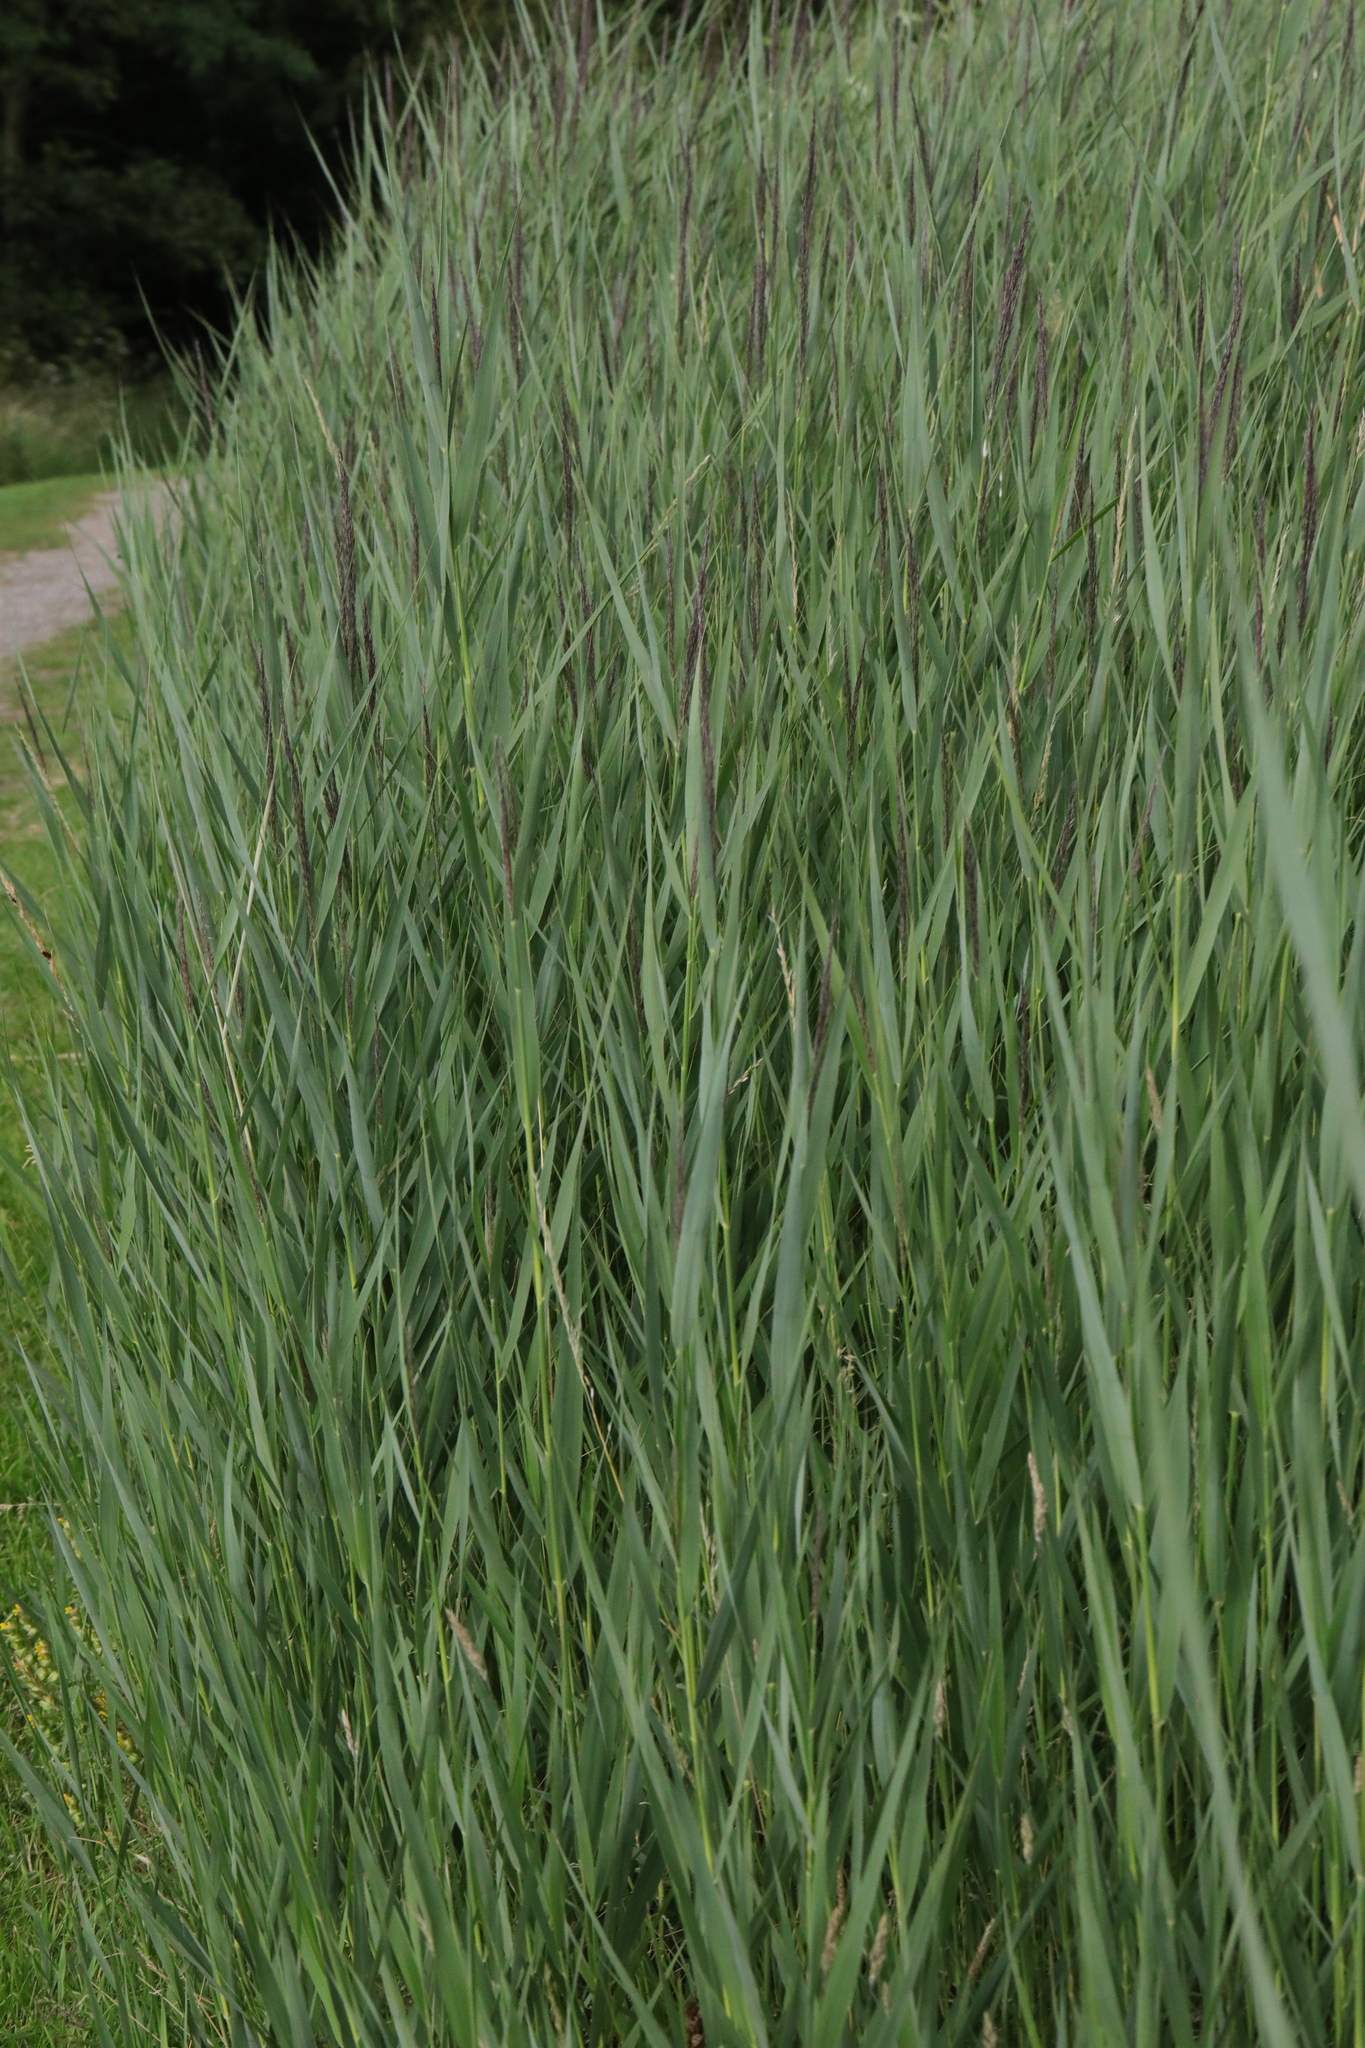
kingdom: Plantae
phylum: Tracheophyta
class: Liliopsida
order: Poales
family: Poaceae
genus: Phragmites
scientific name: Phragmites australis
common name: Common reed
